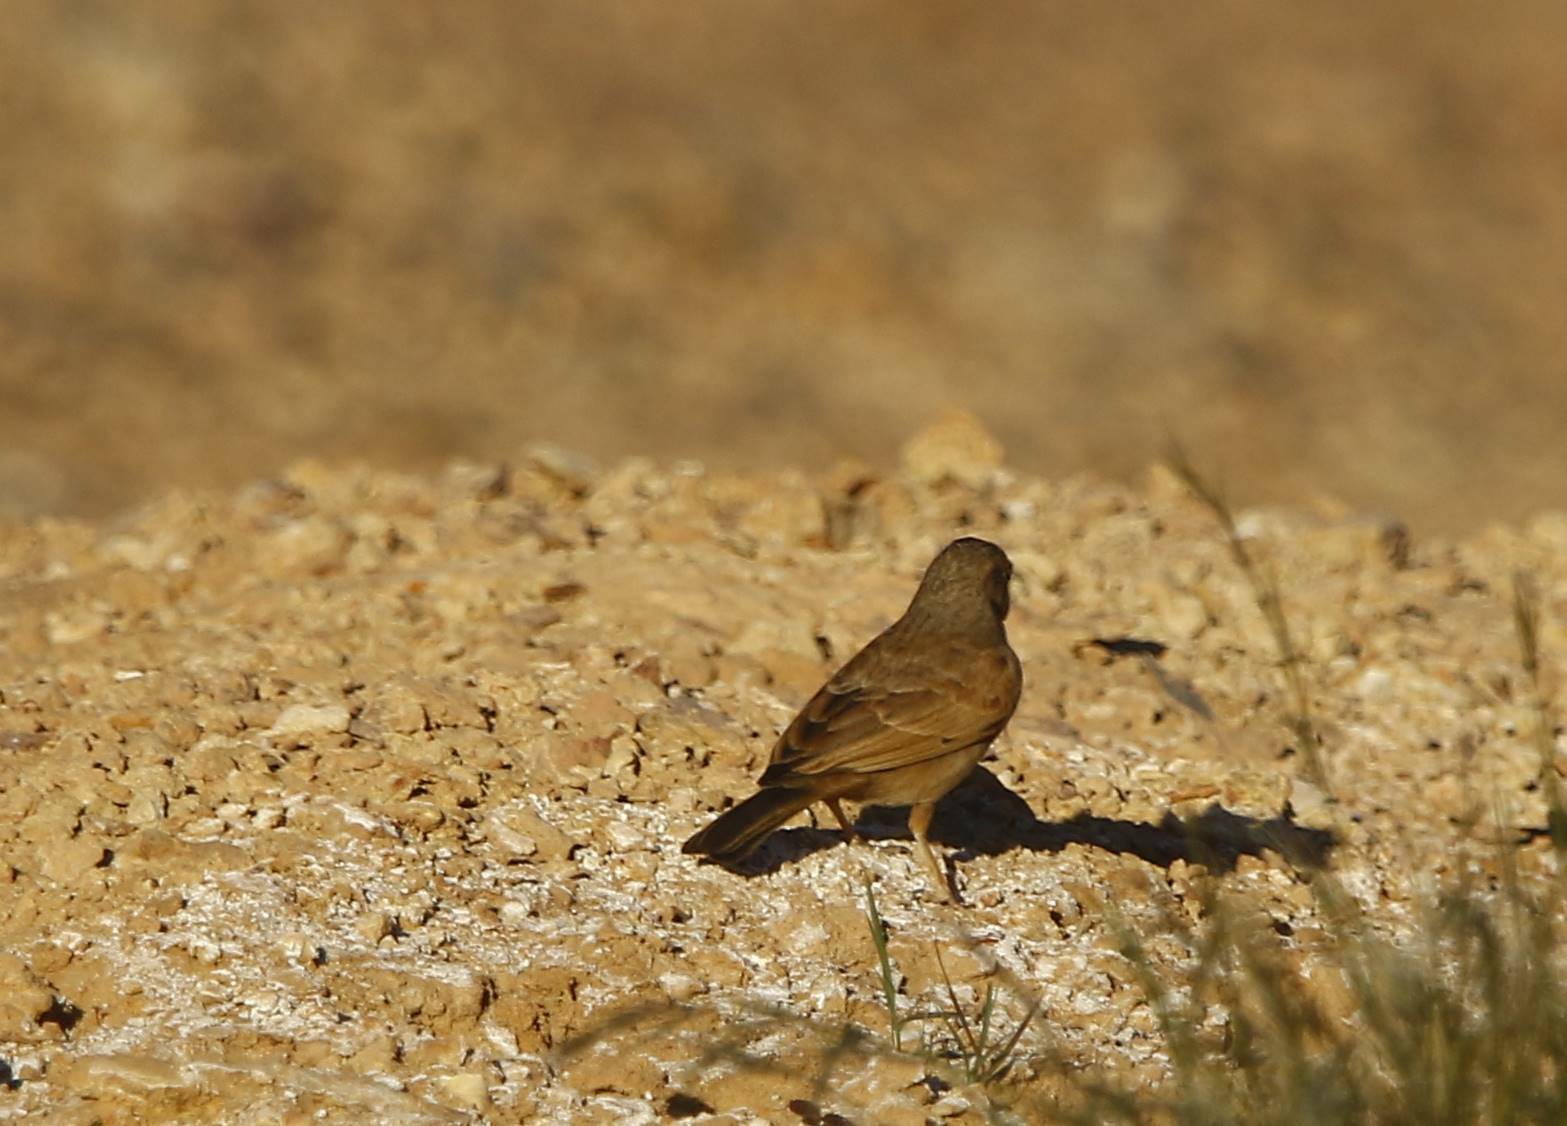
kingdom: Animalia
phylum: Chordata
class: Aves
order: Passeriformes
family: Emberizidae
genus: Emberiza
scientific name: Emberiza sahari
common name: House bunting
